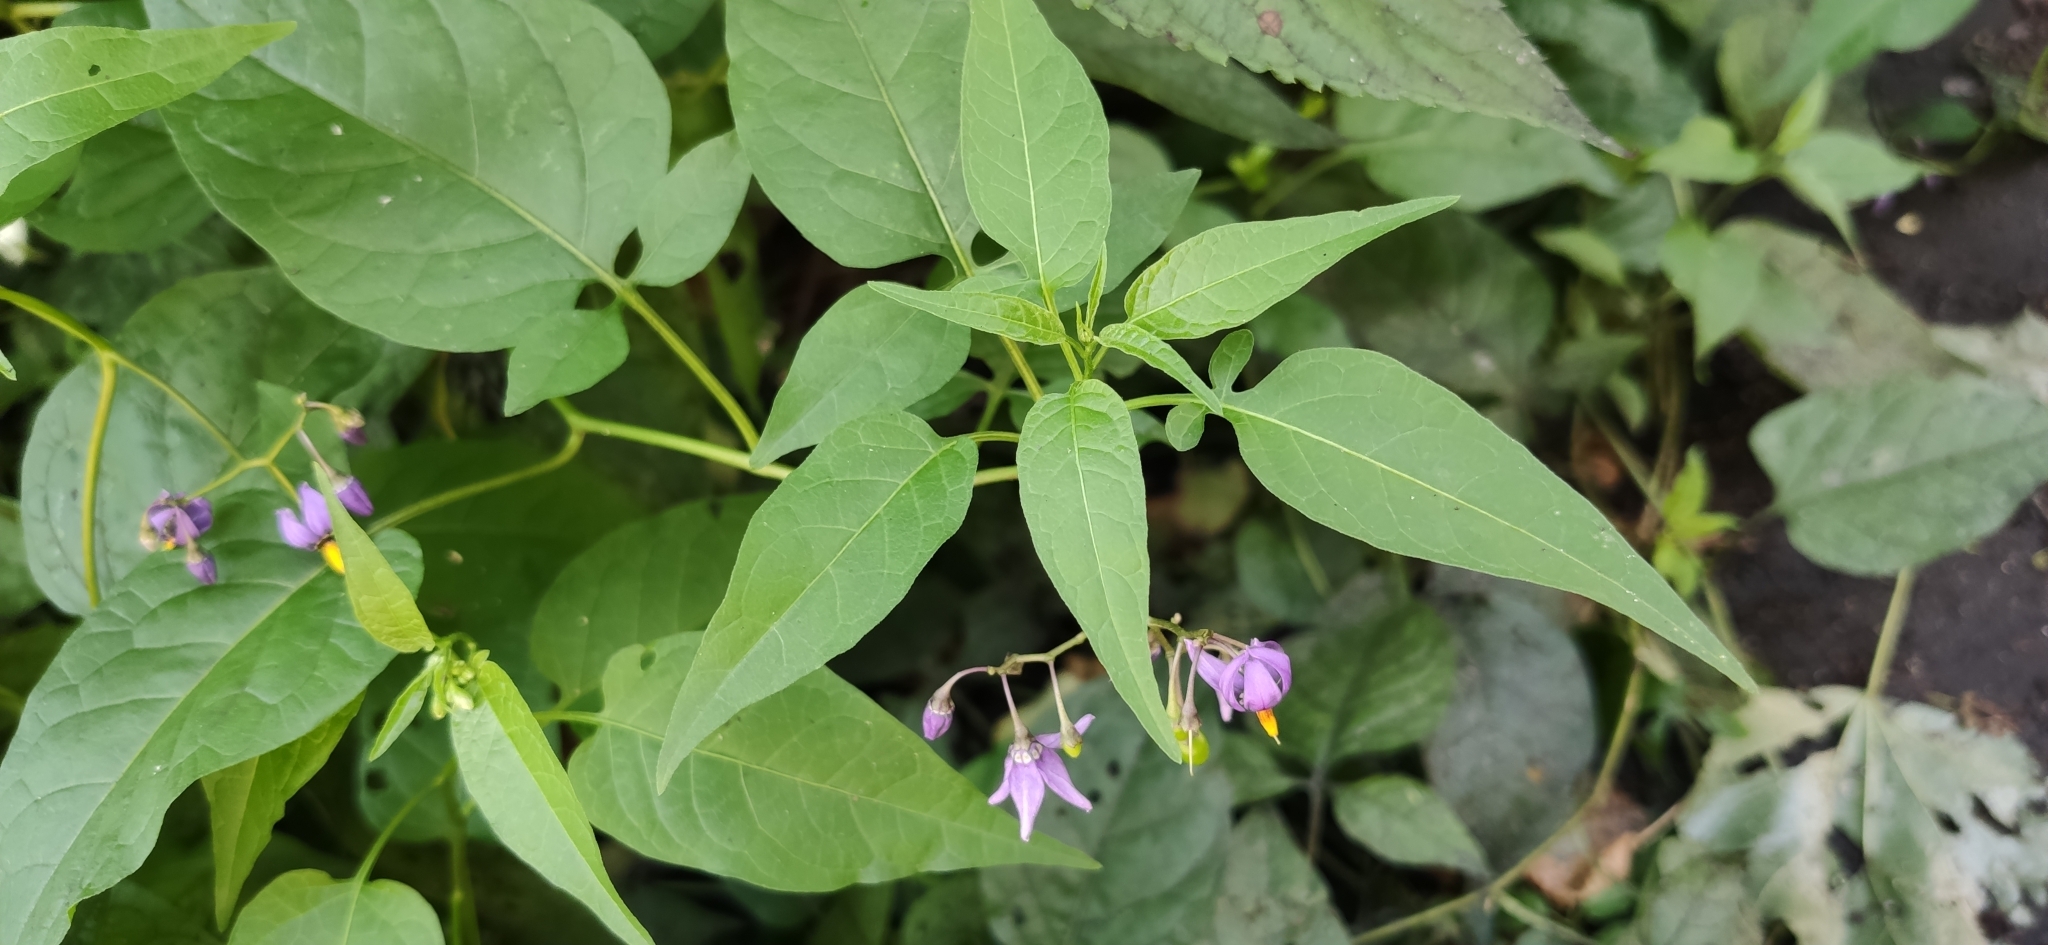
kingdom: Plantae
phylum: Tracheophyta
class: Magnoliopsida
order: Solanales
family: Solanaceae
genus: Solanum
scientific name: Solanum dulcamara
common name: Climbing nightshade
